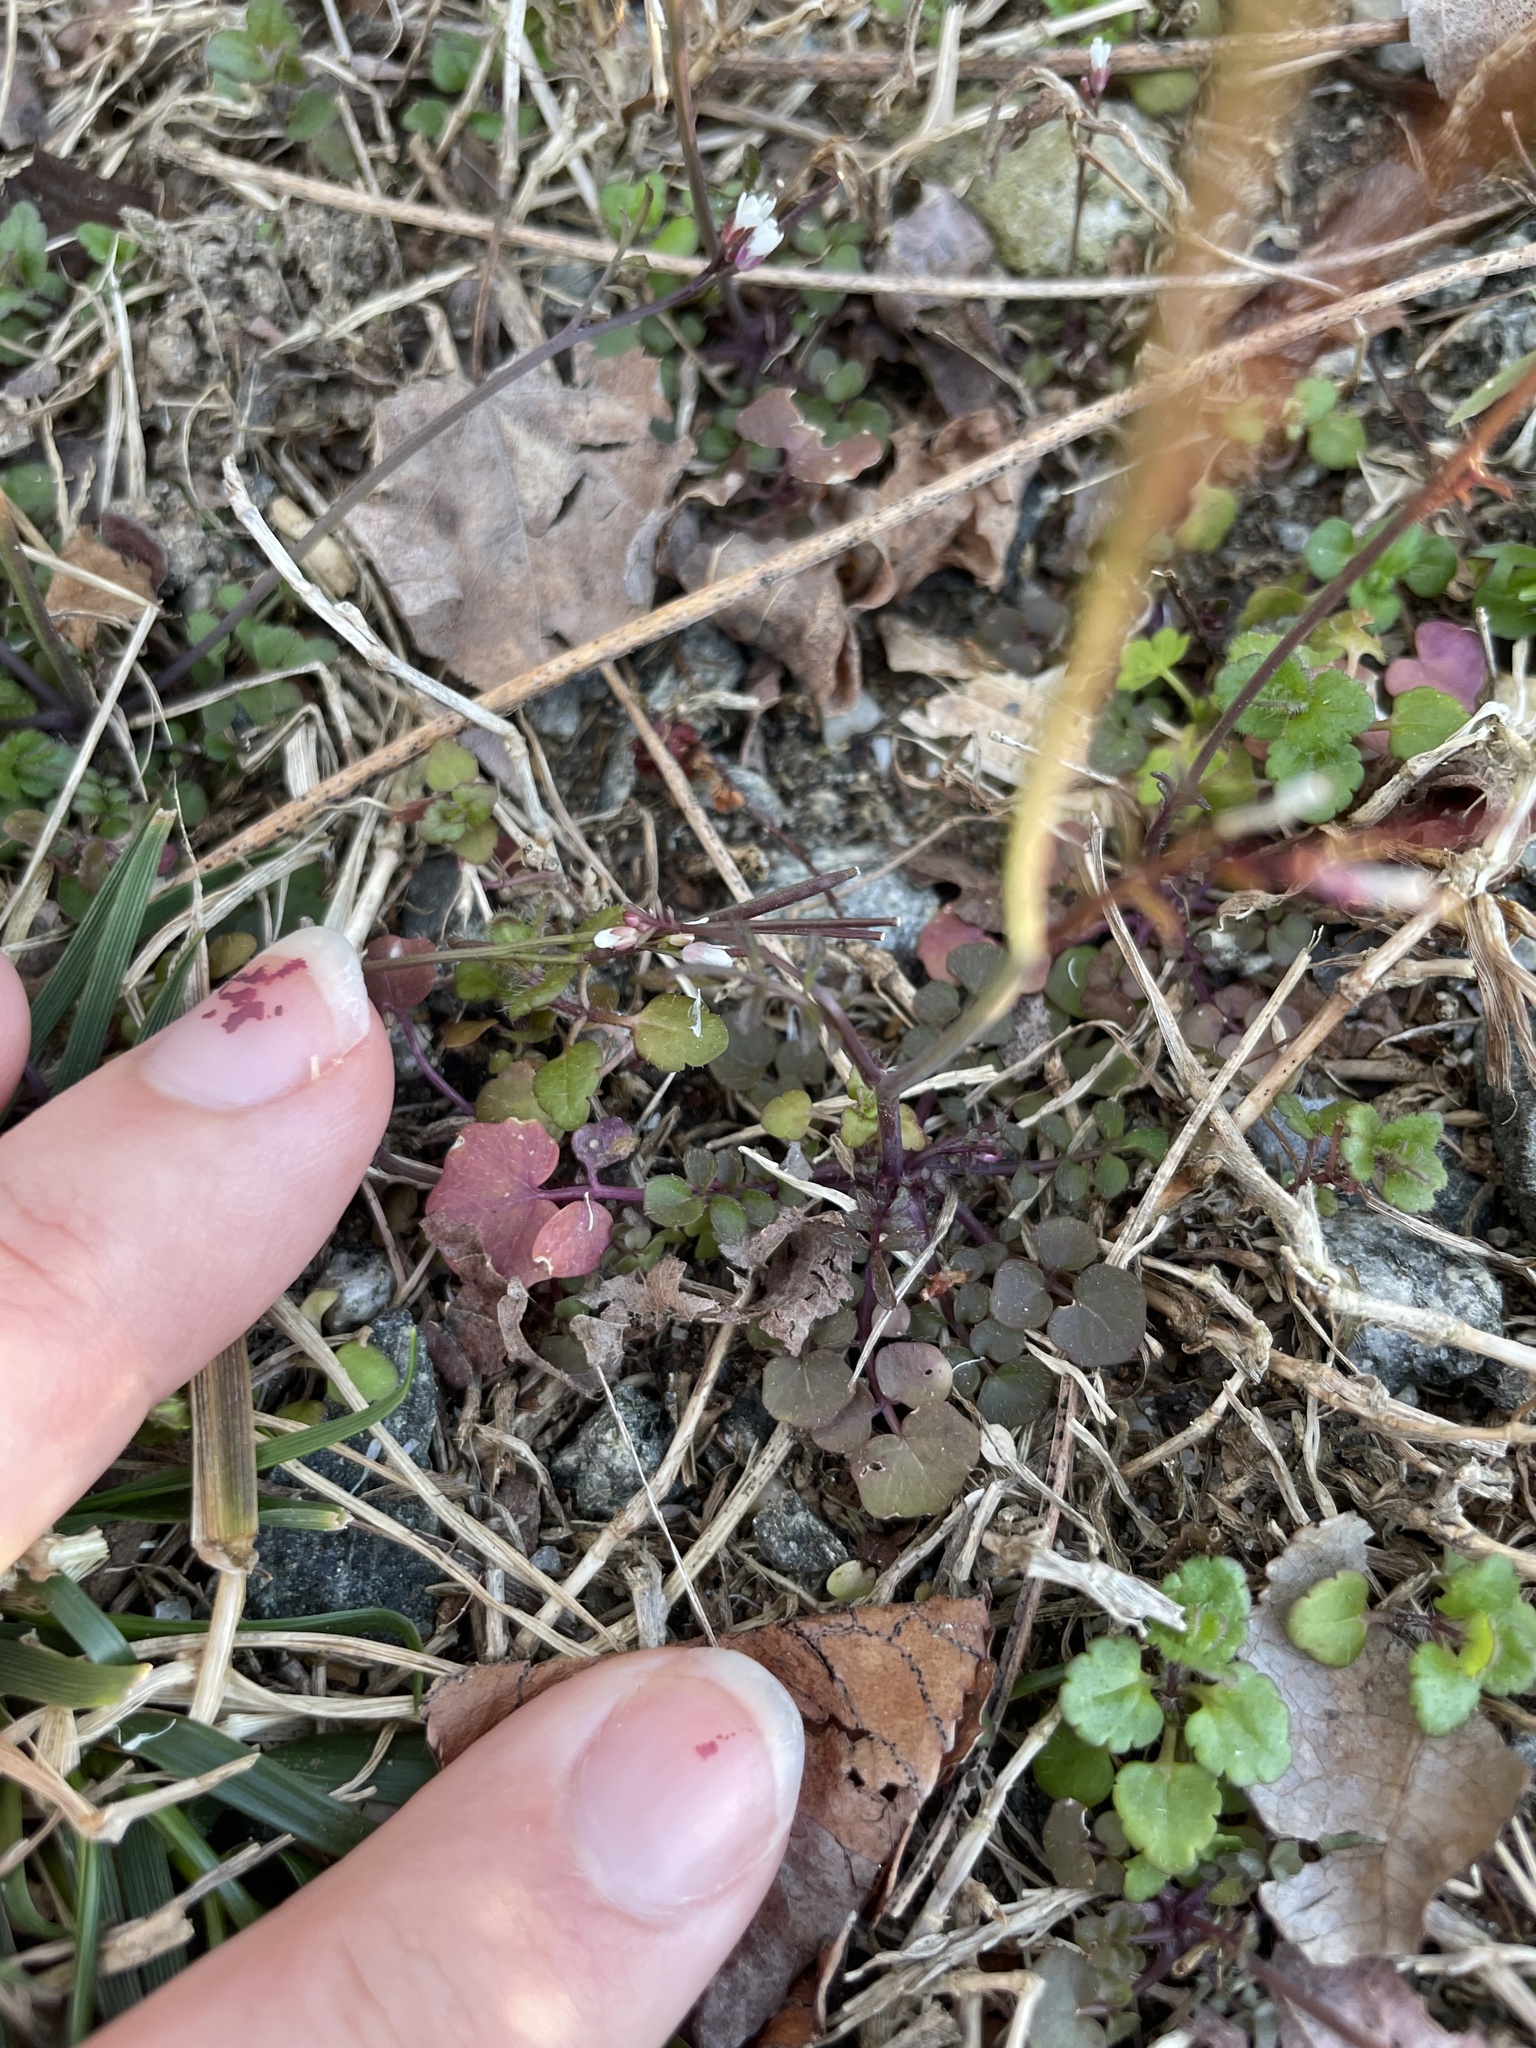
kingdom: Plantae
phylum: Tracheophyta
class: Magnoliopsida
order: Brassicales
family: Brassicaceae
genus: Cardamine
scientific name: Cardamine hirsuta
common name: Hairy bittercress
